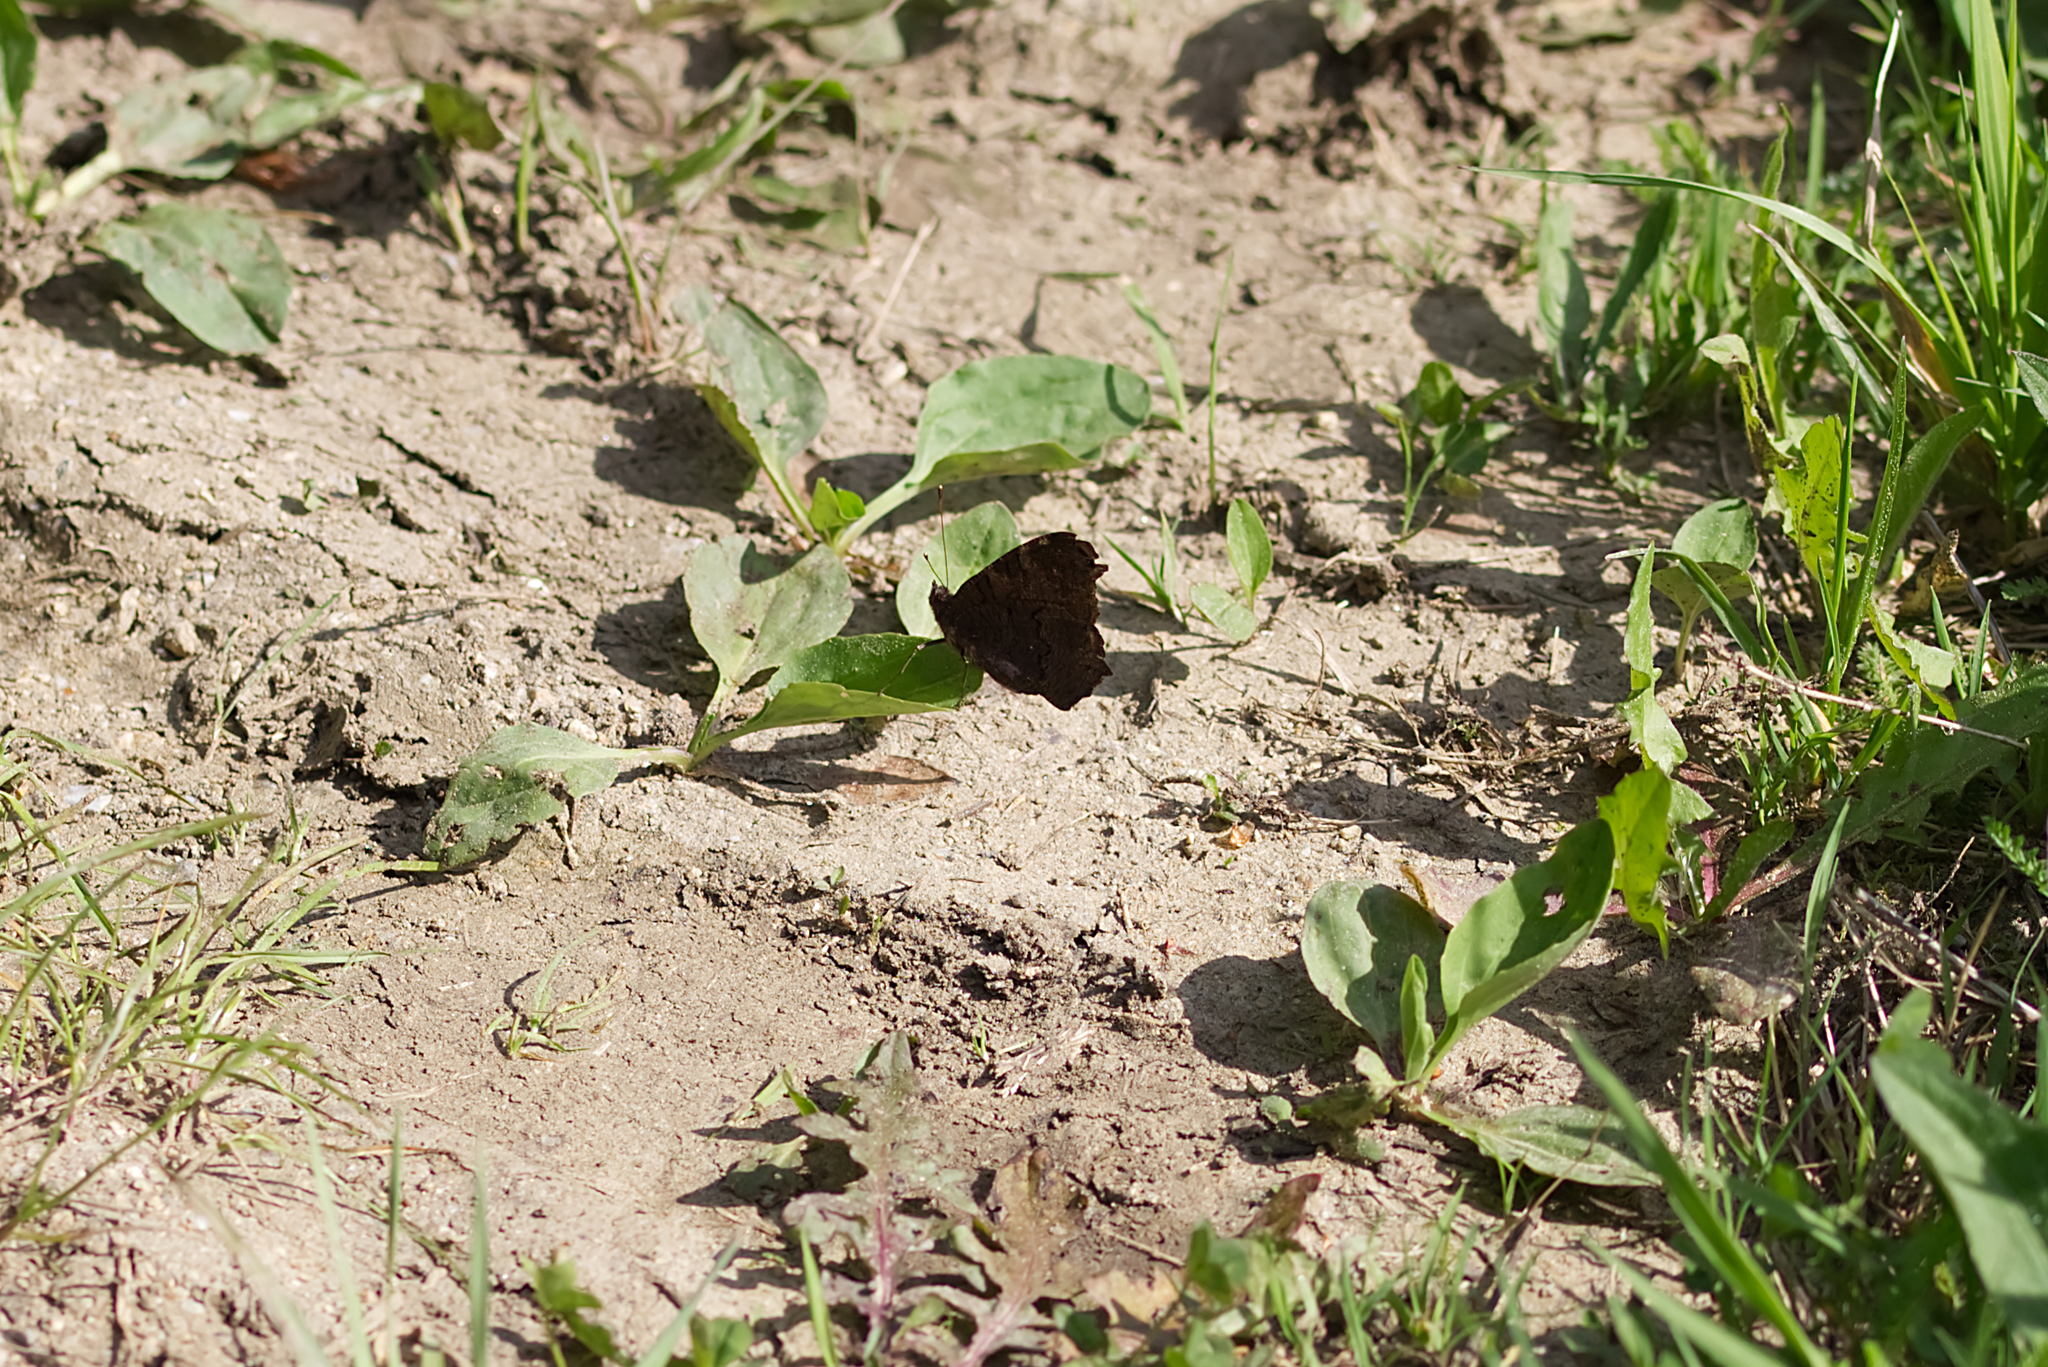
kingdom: Animalia
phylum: Arthropoda
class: Insecta
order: Lepidoptera
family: Nymphalidae
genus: Aglais
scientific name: Aglais io
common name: Peacock
